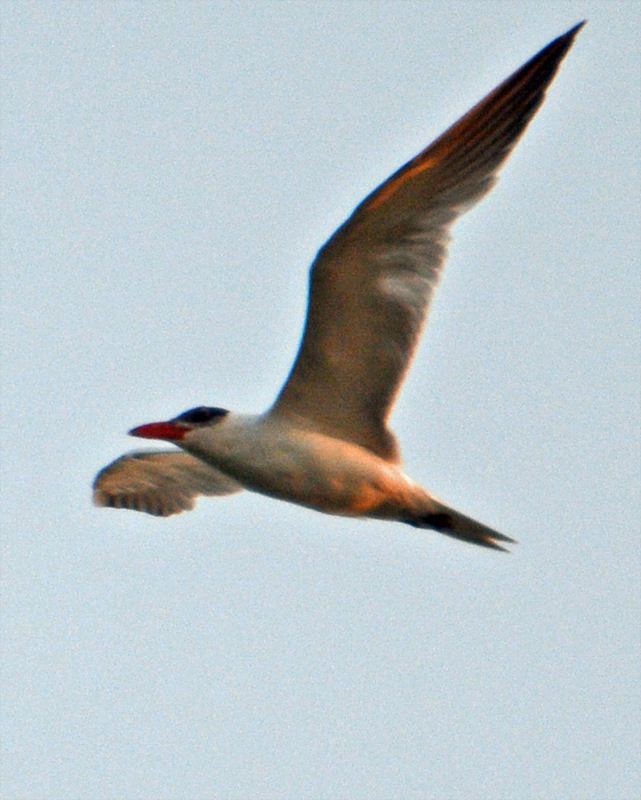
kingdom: Animalia
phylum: Chordata
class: Aves
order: Charadriiformes
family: Laridae
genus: Hydroprogne
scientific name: Hydroprogne caspia
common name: Caspian tern
